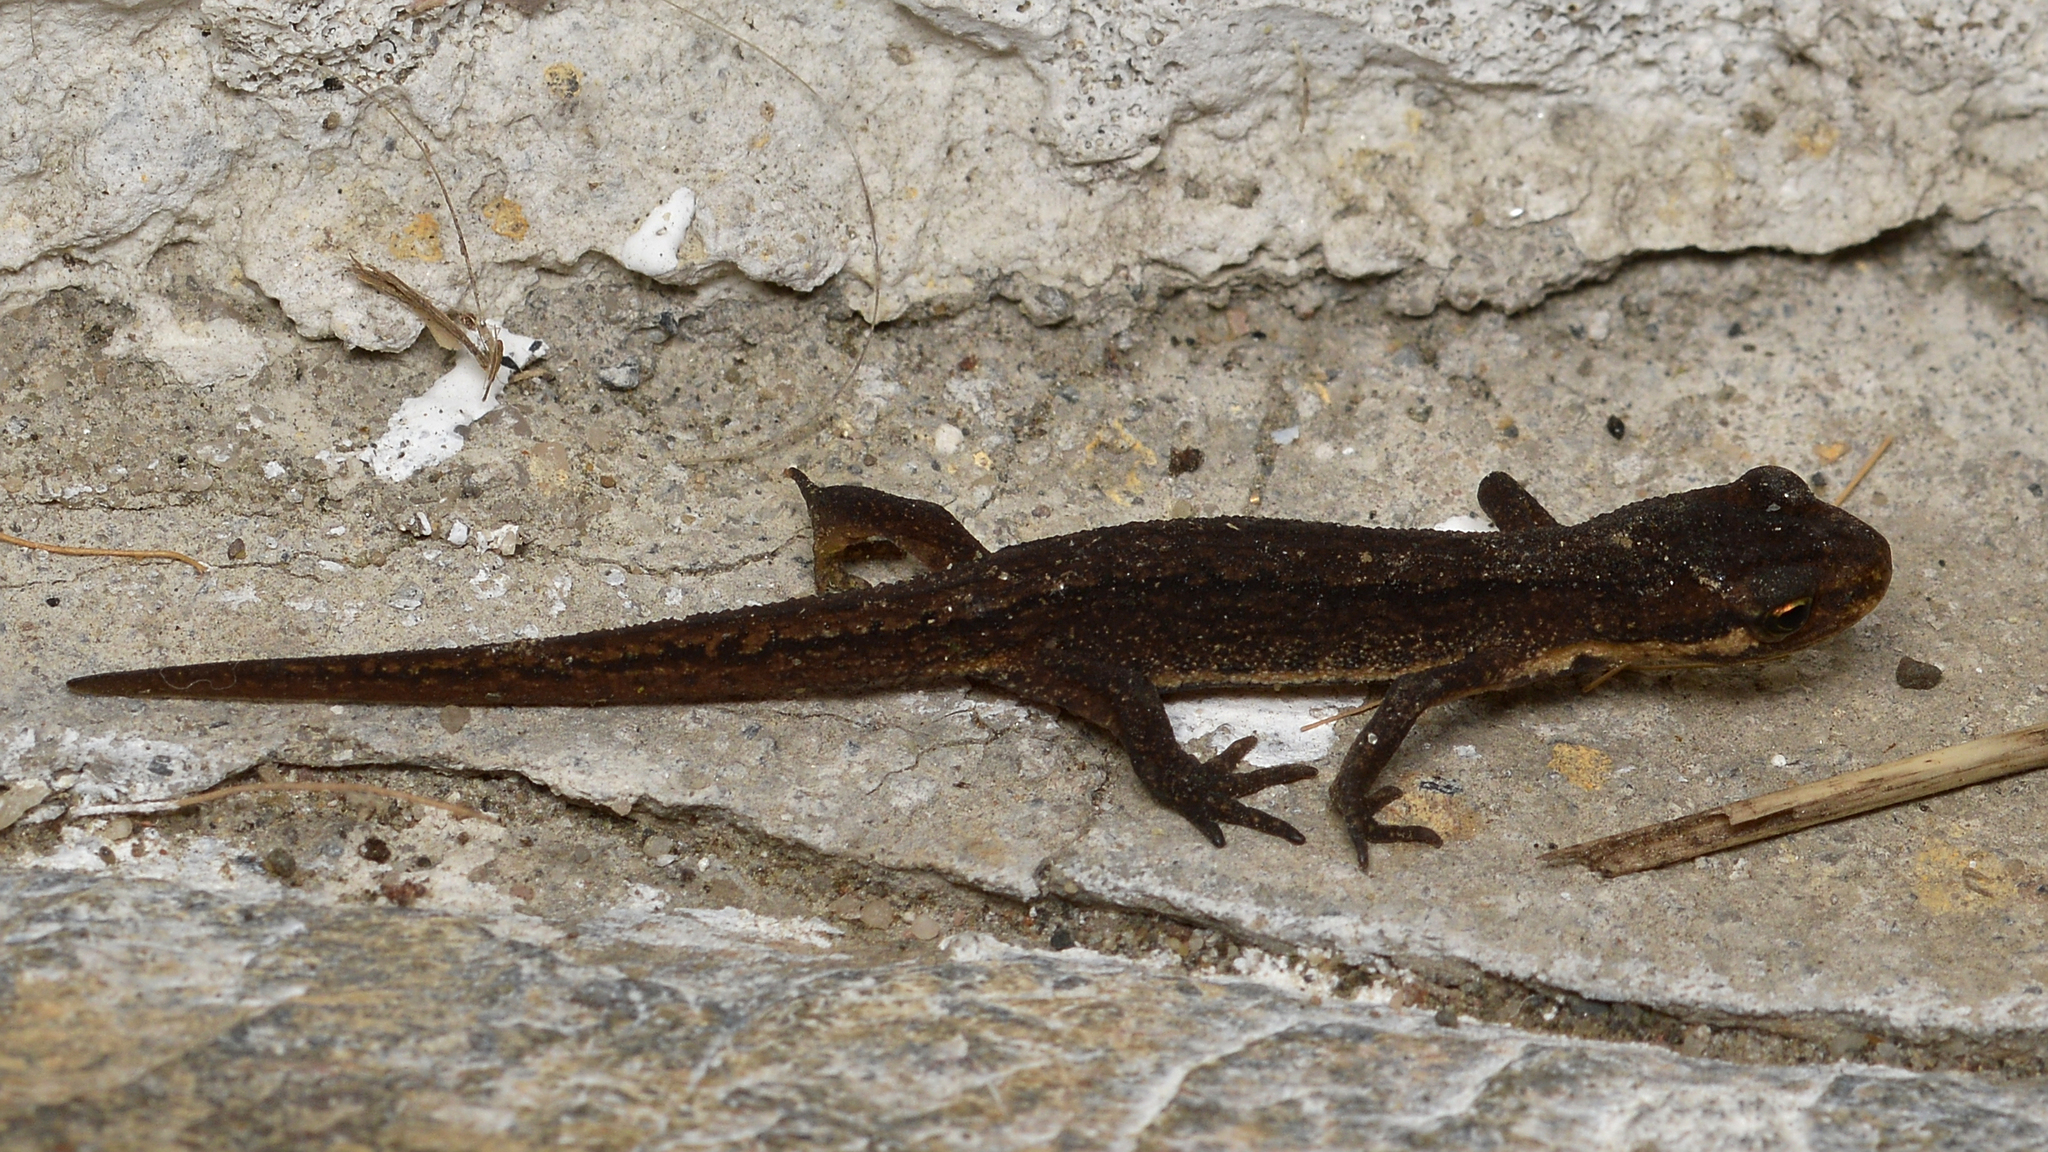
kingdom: Animalia
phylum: Chordata
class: Amphibia
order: Caudata
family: Salamandridae
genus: Lissotriton
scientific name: Lissotriton vulgaris
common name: Smooth newt
